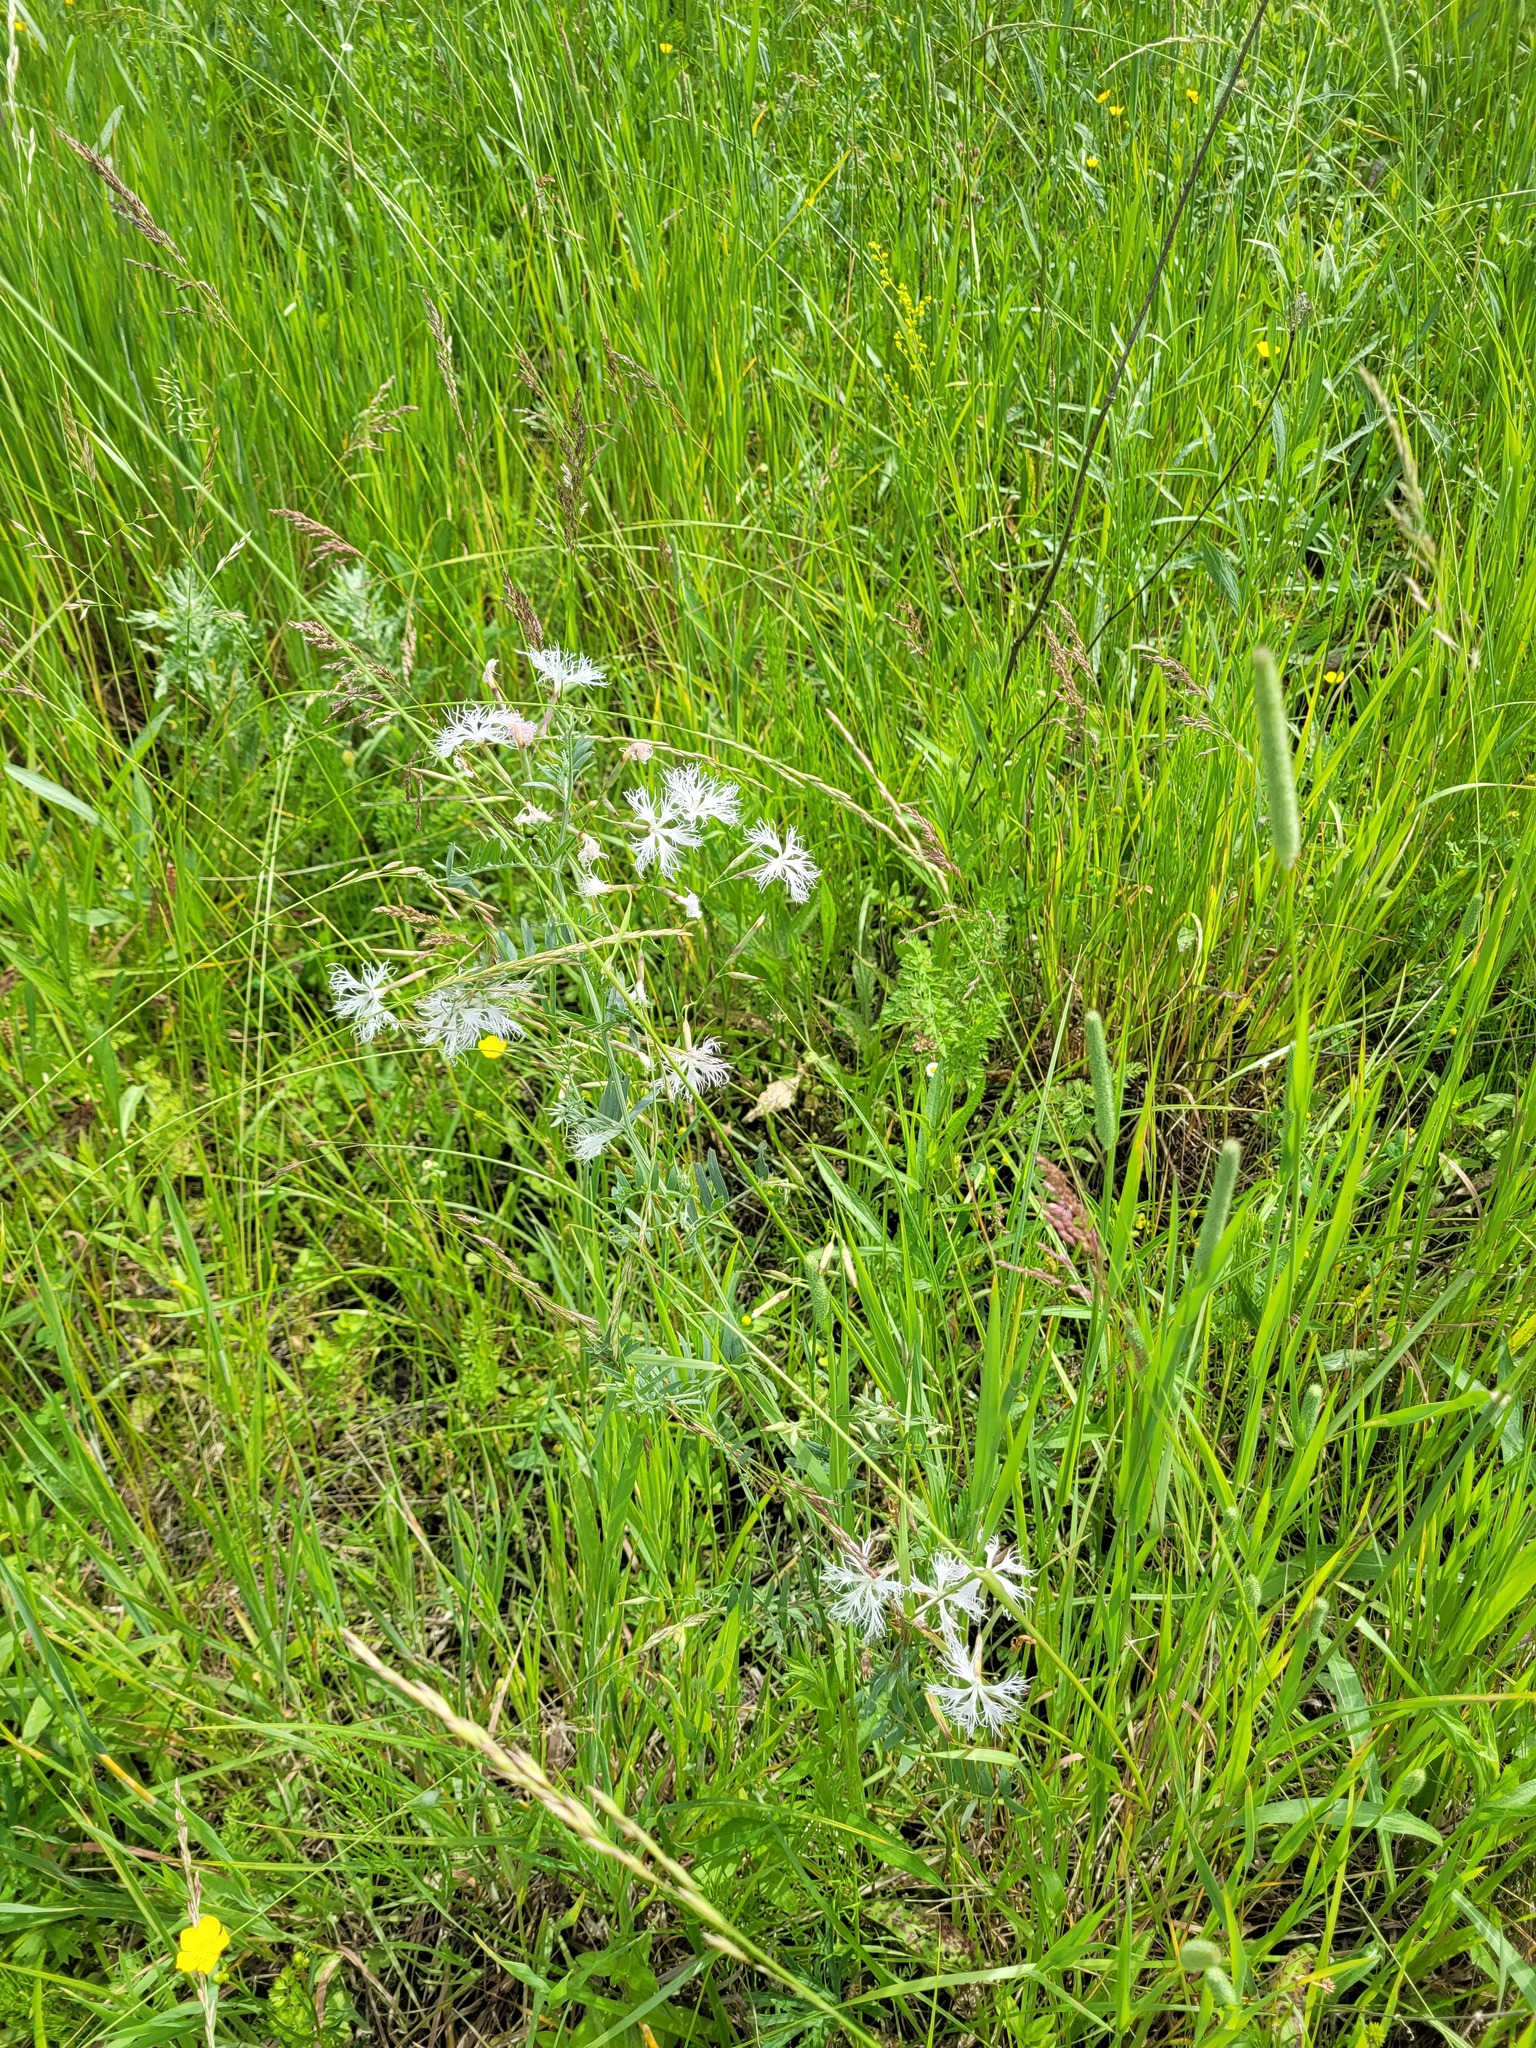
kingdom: Plantae
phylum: Tracheophyta
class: Magnoliopsida
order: Caryophyllales
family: Caryophyllaceae
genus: Dianthus
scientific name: Dianthus superbus
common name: Fringed pink
